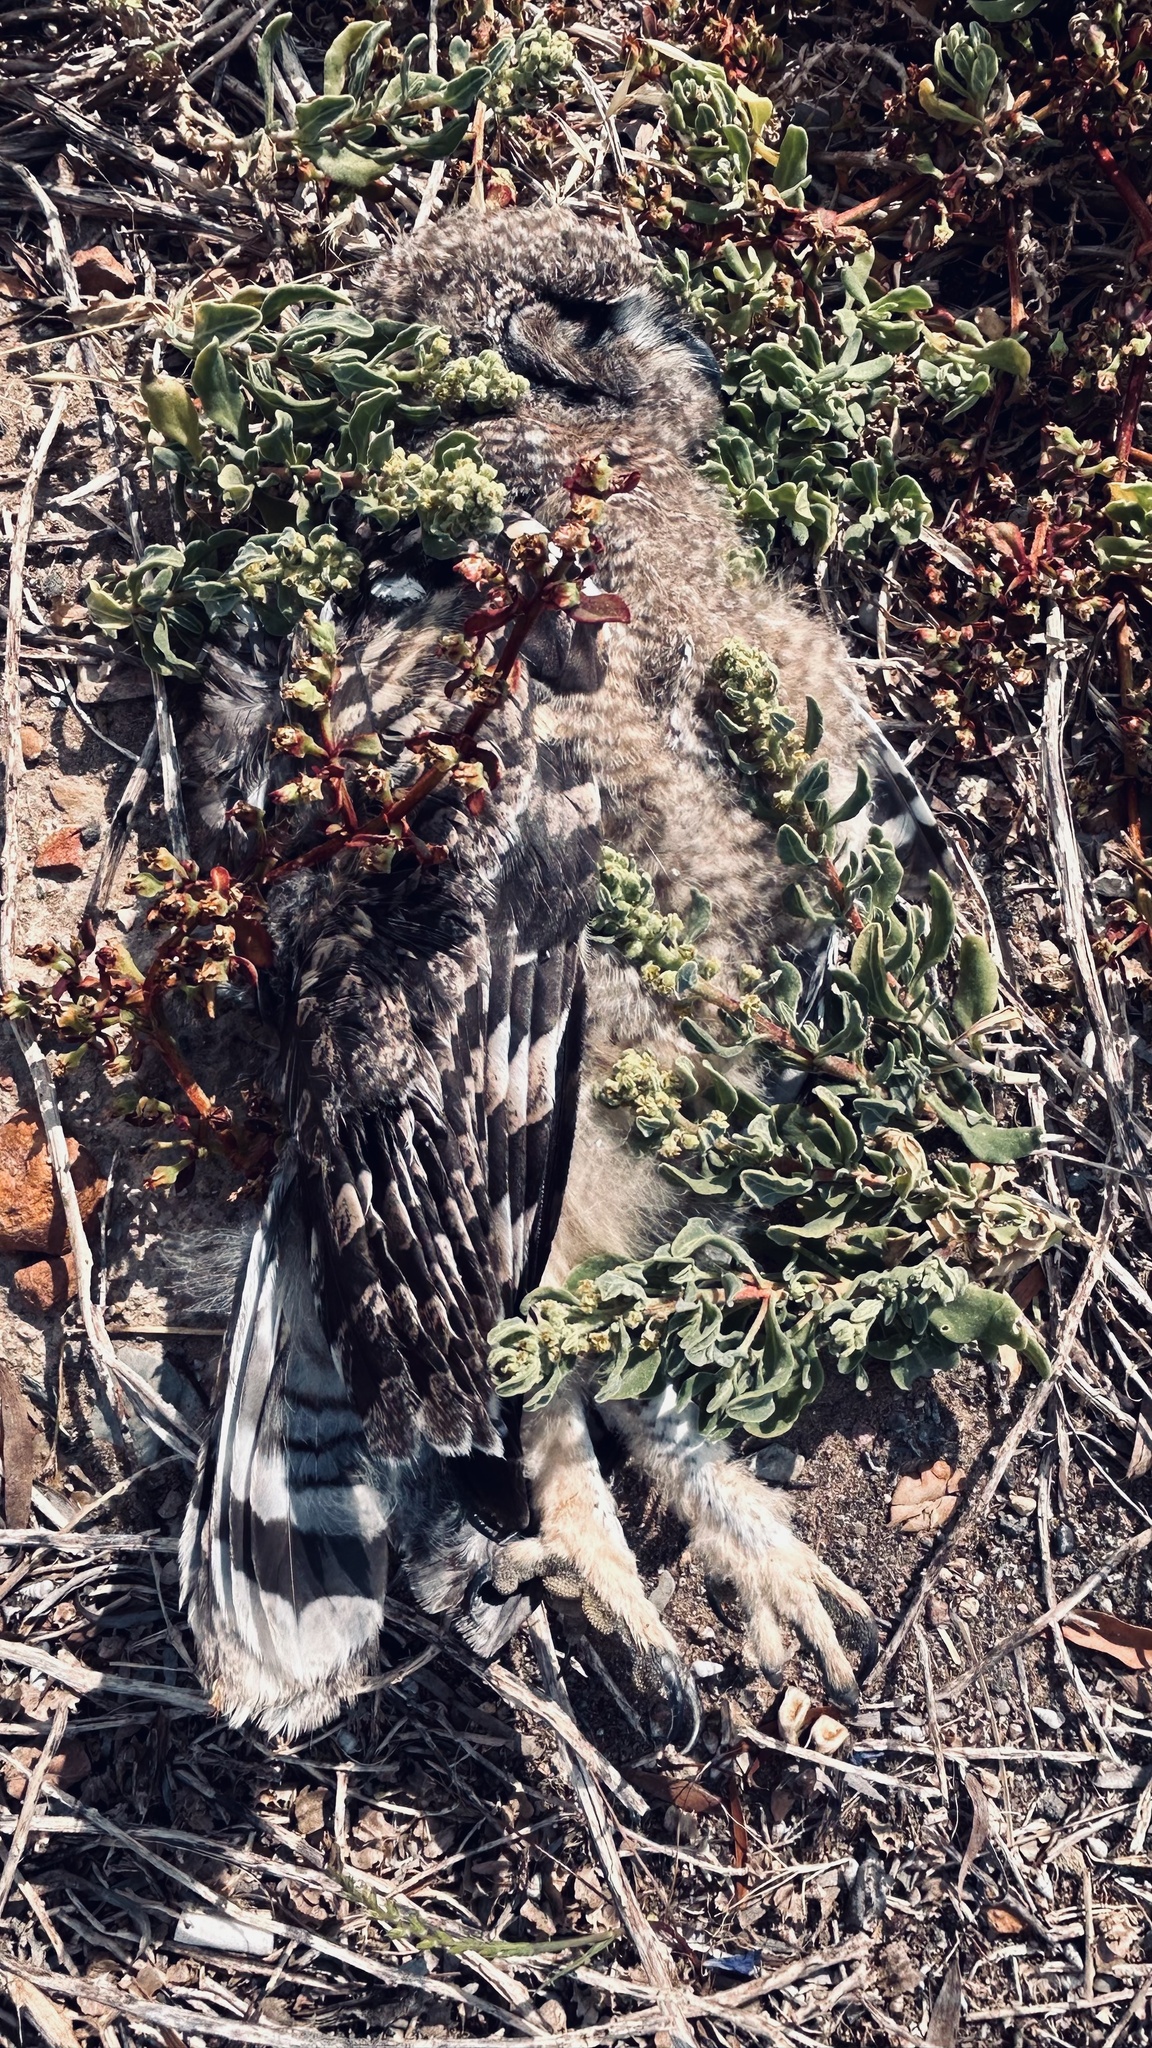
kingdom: Animalia
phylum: Chordata
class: Aves
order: Strigiformes
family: Strigidae
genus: Bubo
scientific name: Bubo africanus
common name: Spotted eagle-owl
